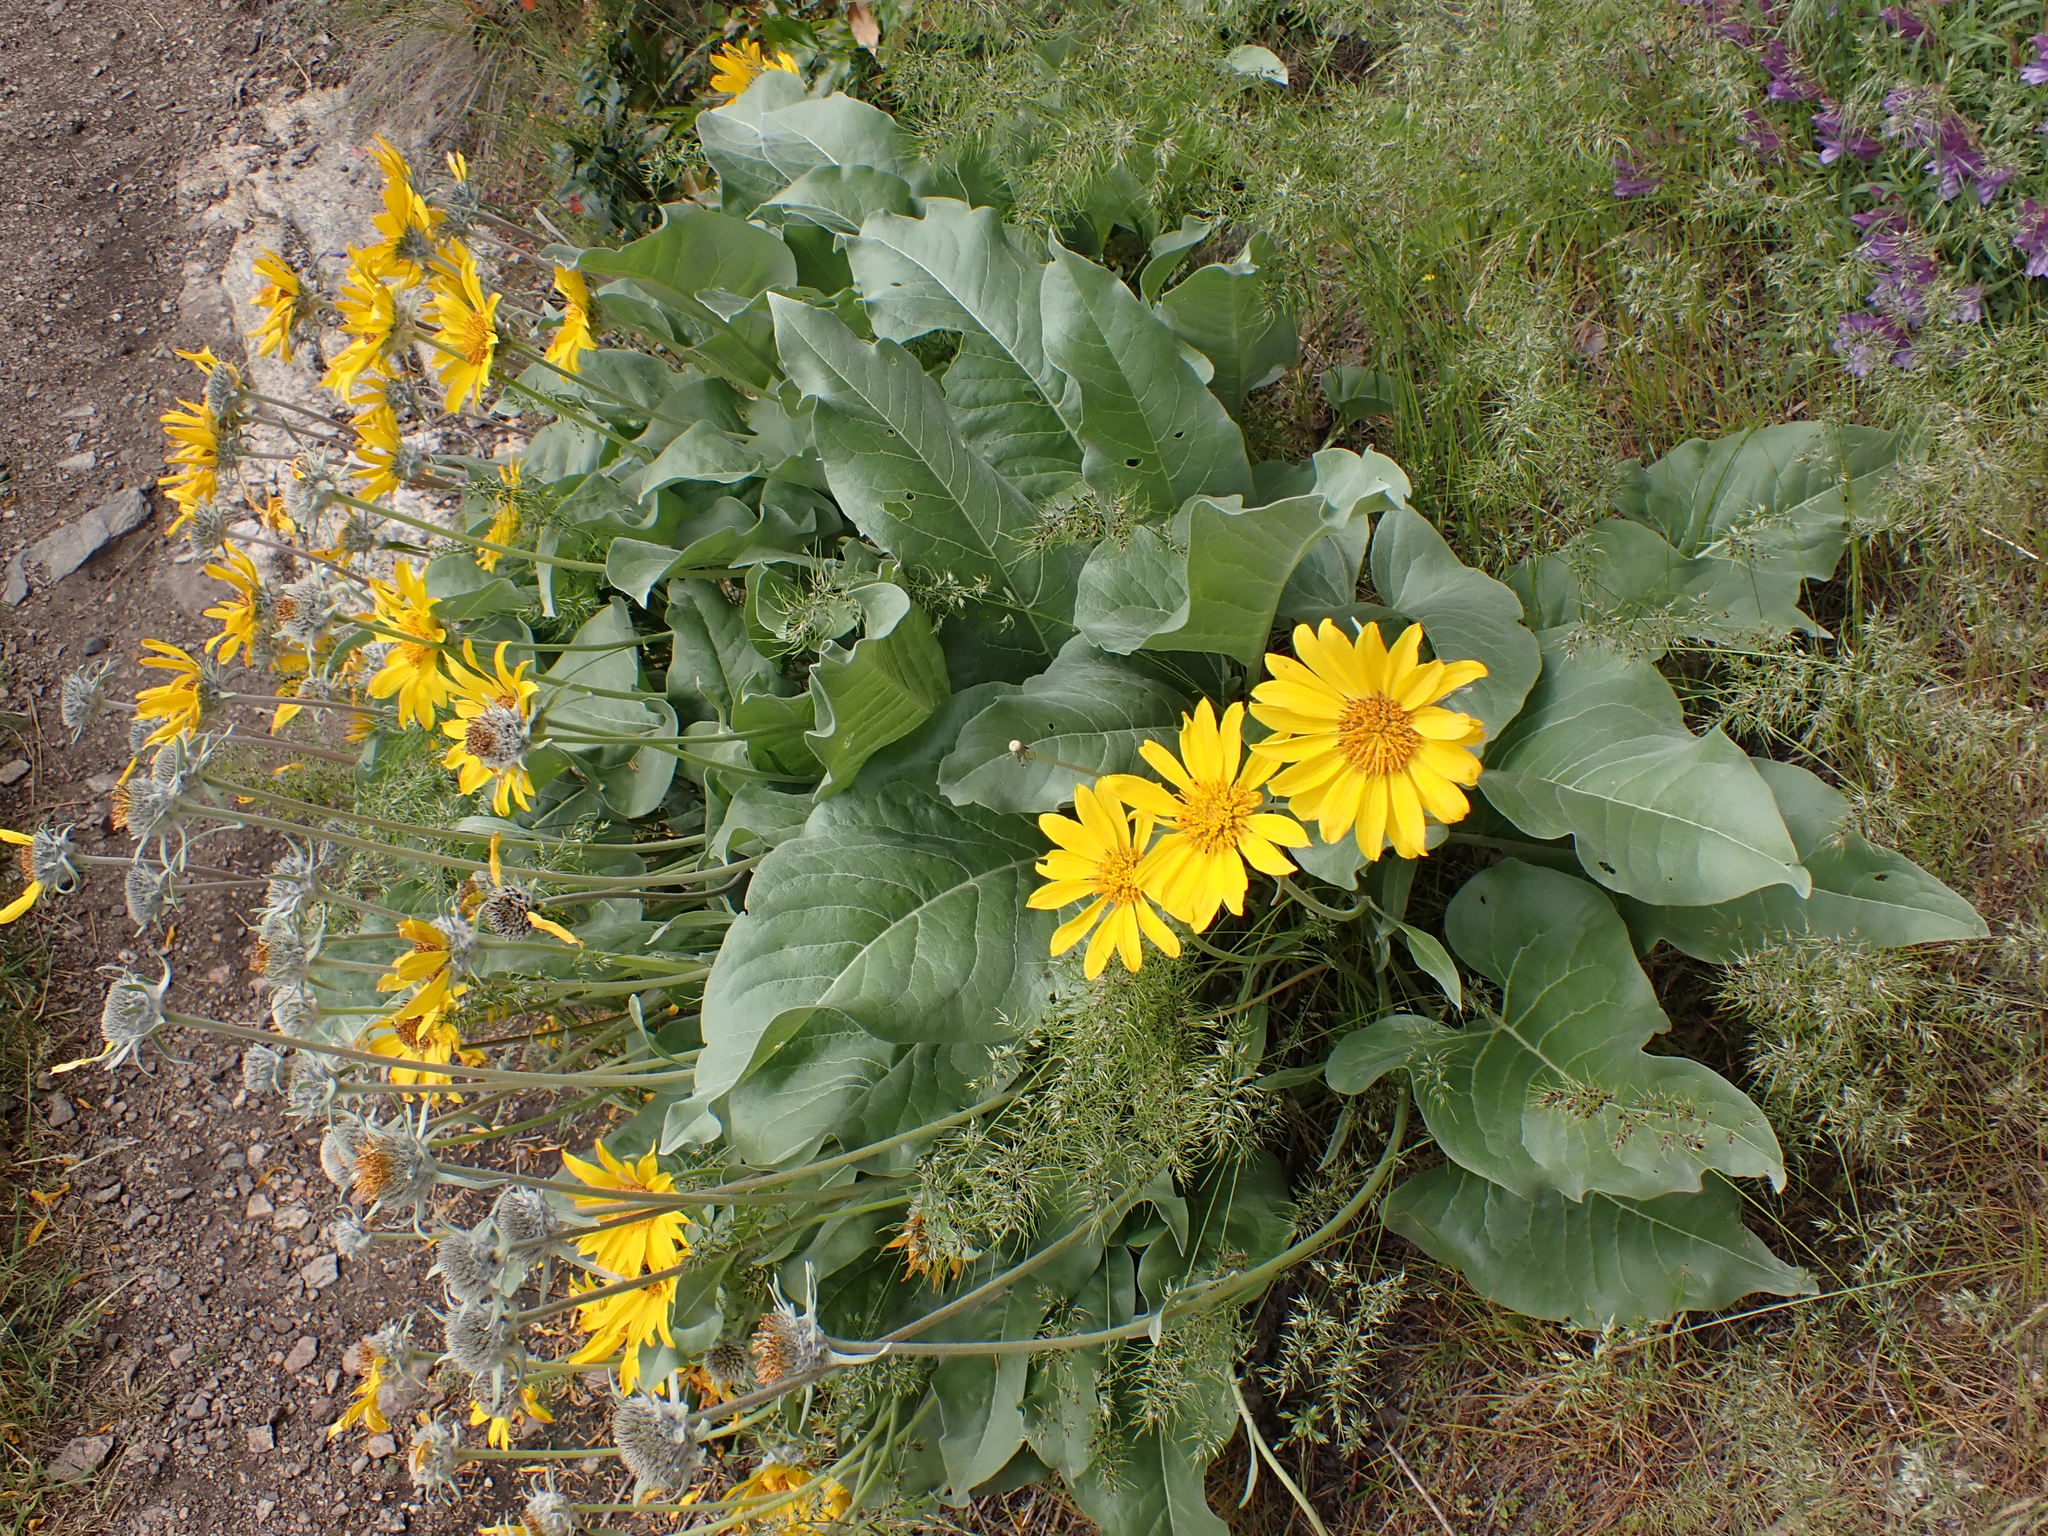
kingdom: Plantae
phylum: Tracheophyta
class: Magnoliopsida
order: Asterales
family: Asteraceae
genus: Wyethia
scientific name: Wyethia sagittata
